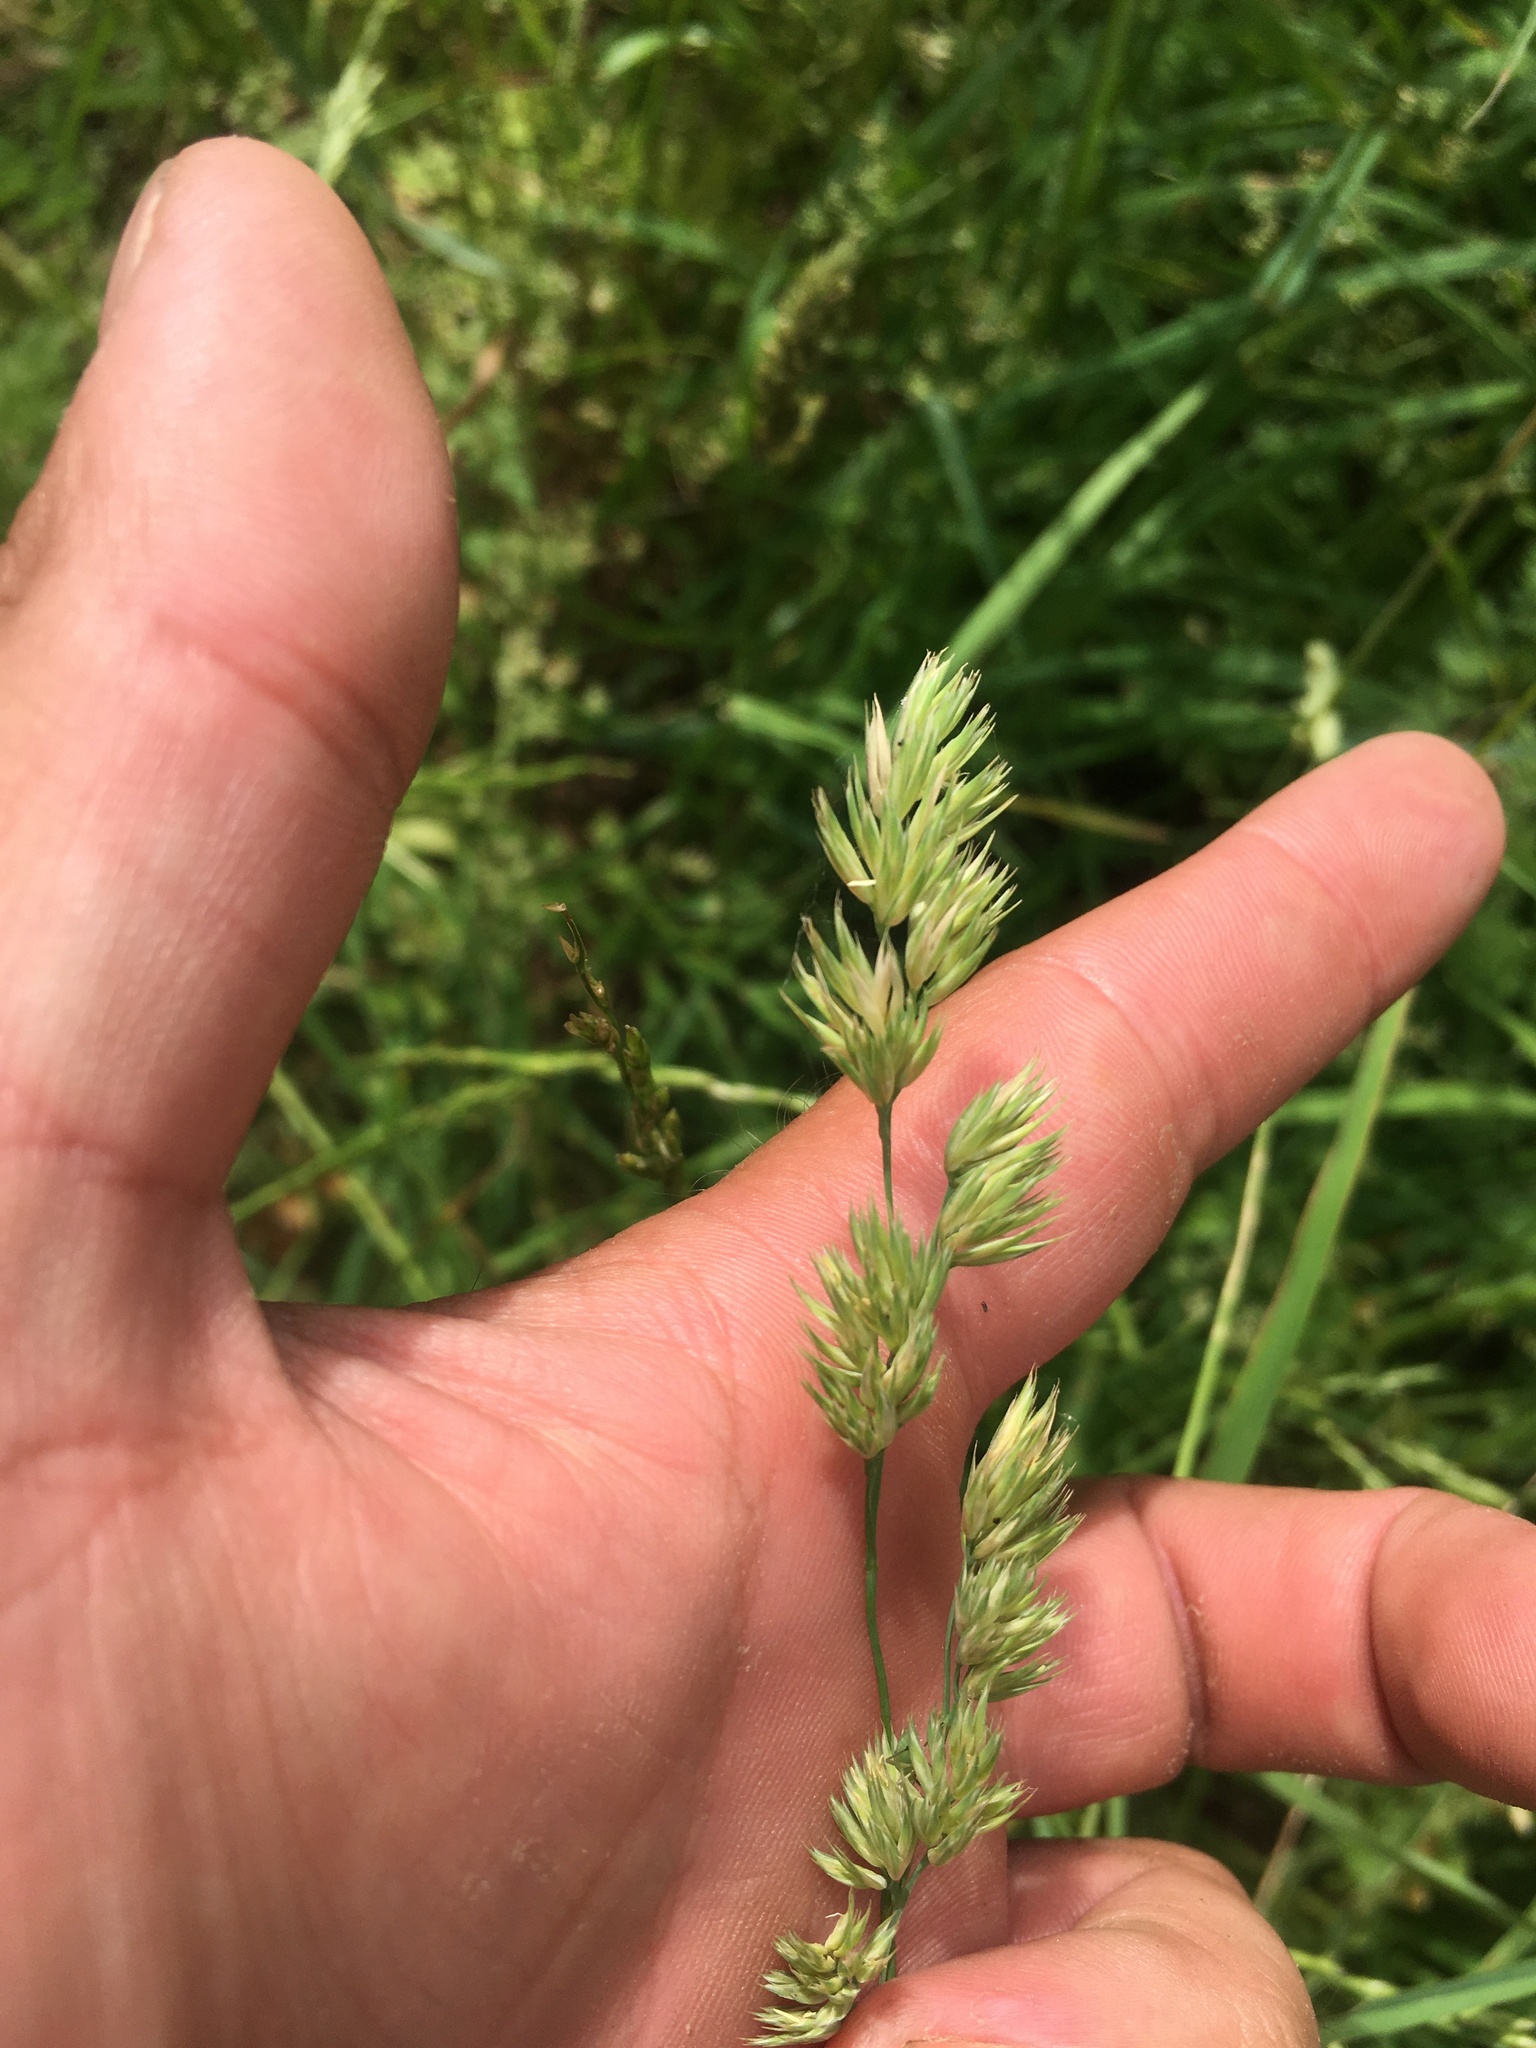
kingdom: Plantae
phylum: Tracheophyta
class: Liliopsida
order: Poales
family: Poaceae
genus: Dactylis
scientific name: Dactylis glomerata
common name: Orchardgrass
